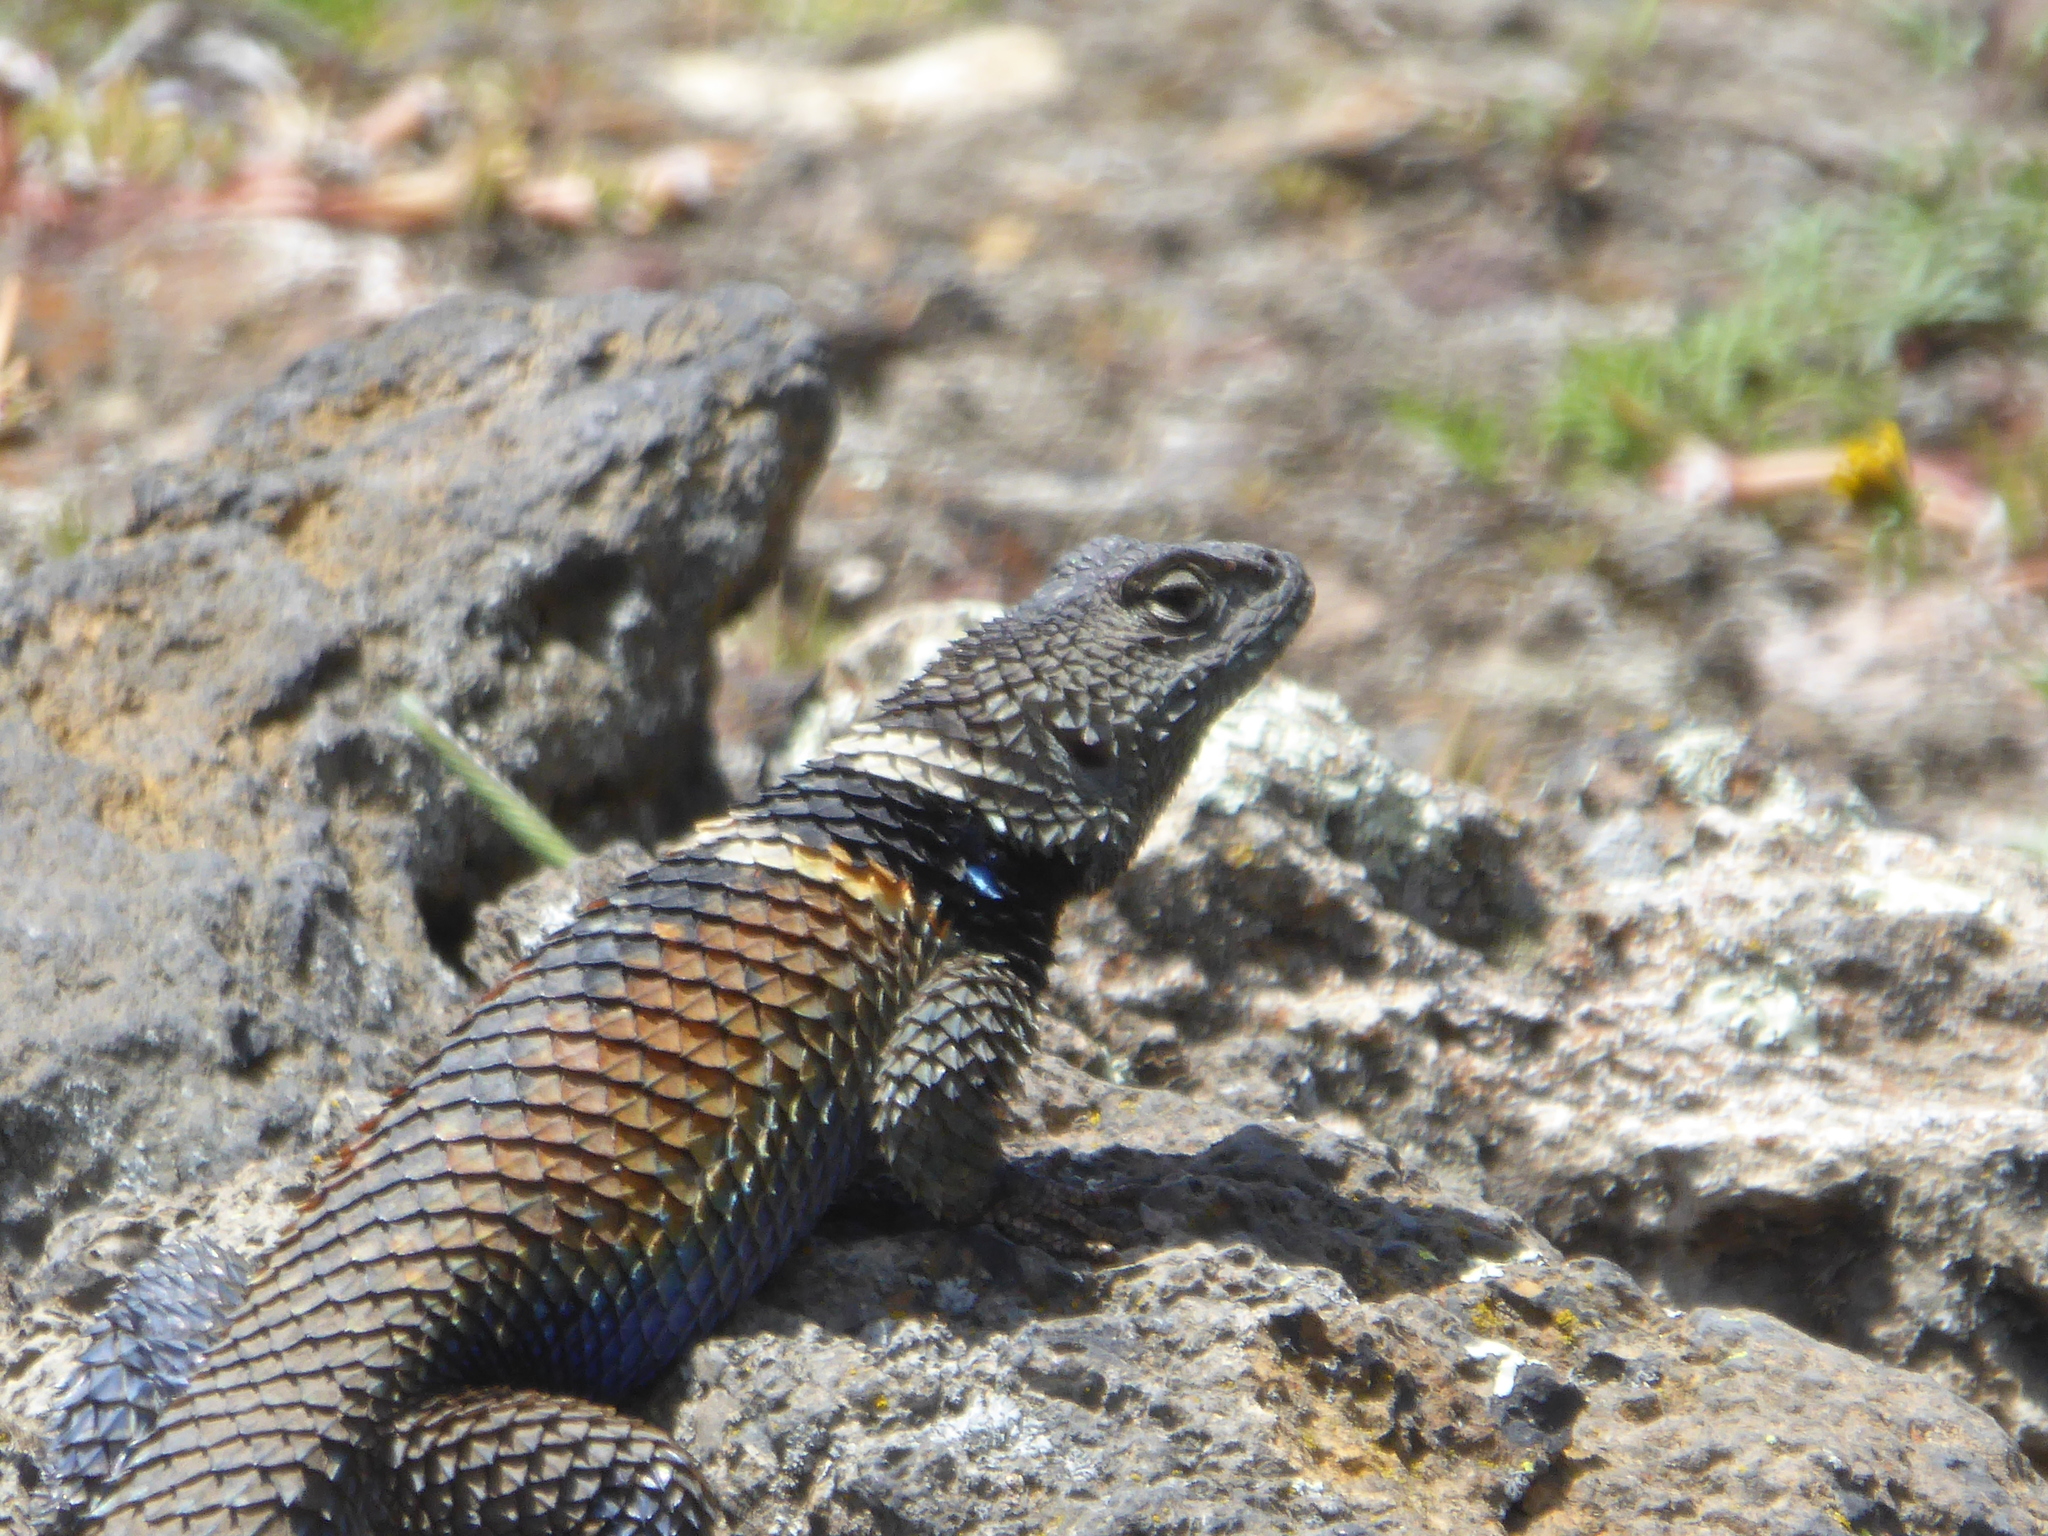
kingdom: Animalia
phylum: Chordata
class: Squamata
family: Phrynosomatidae
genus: Sceloporus
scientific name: Sceloporus torquatus
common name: Central plateau torquate lizard [melanogaster]
